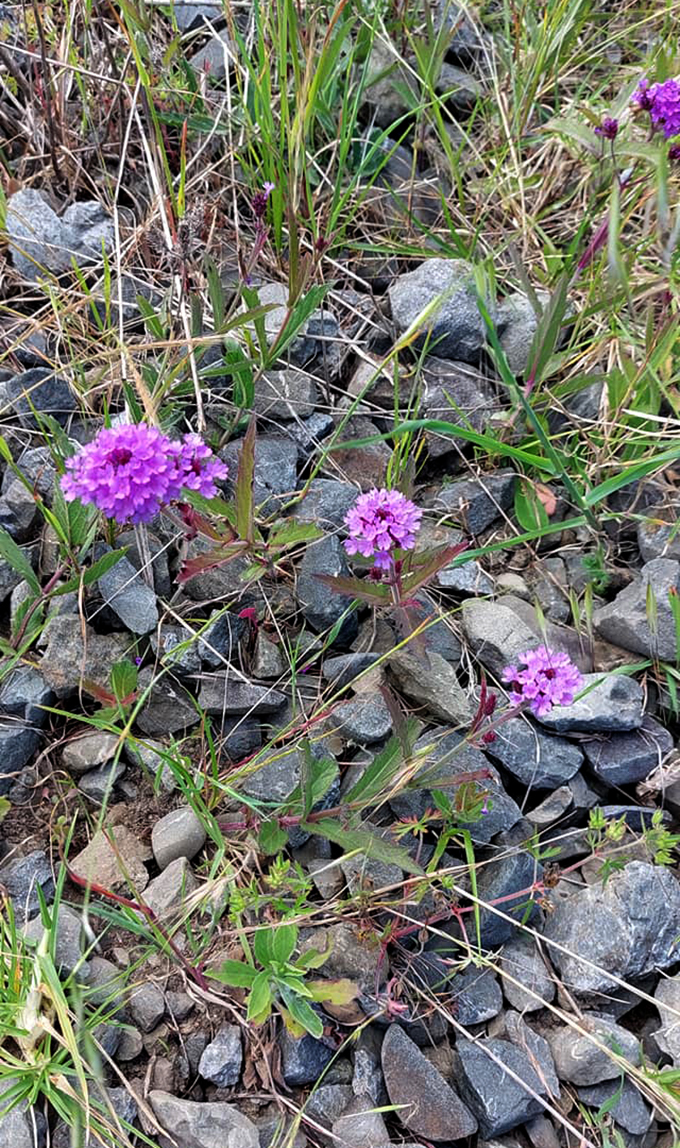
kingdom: Plantae
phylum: Tracheophyta
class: Magnoliopsida
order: Lamiales
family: Verbenaceae
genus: Verbena
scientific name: Verbena rigida
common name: Slender vervain
